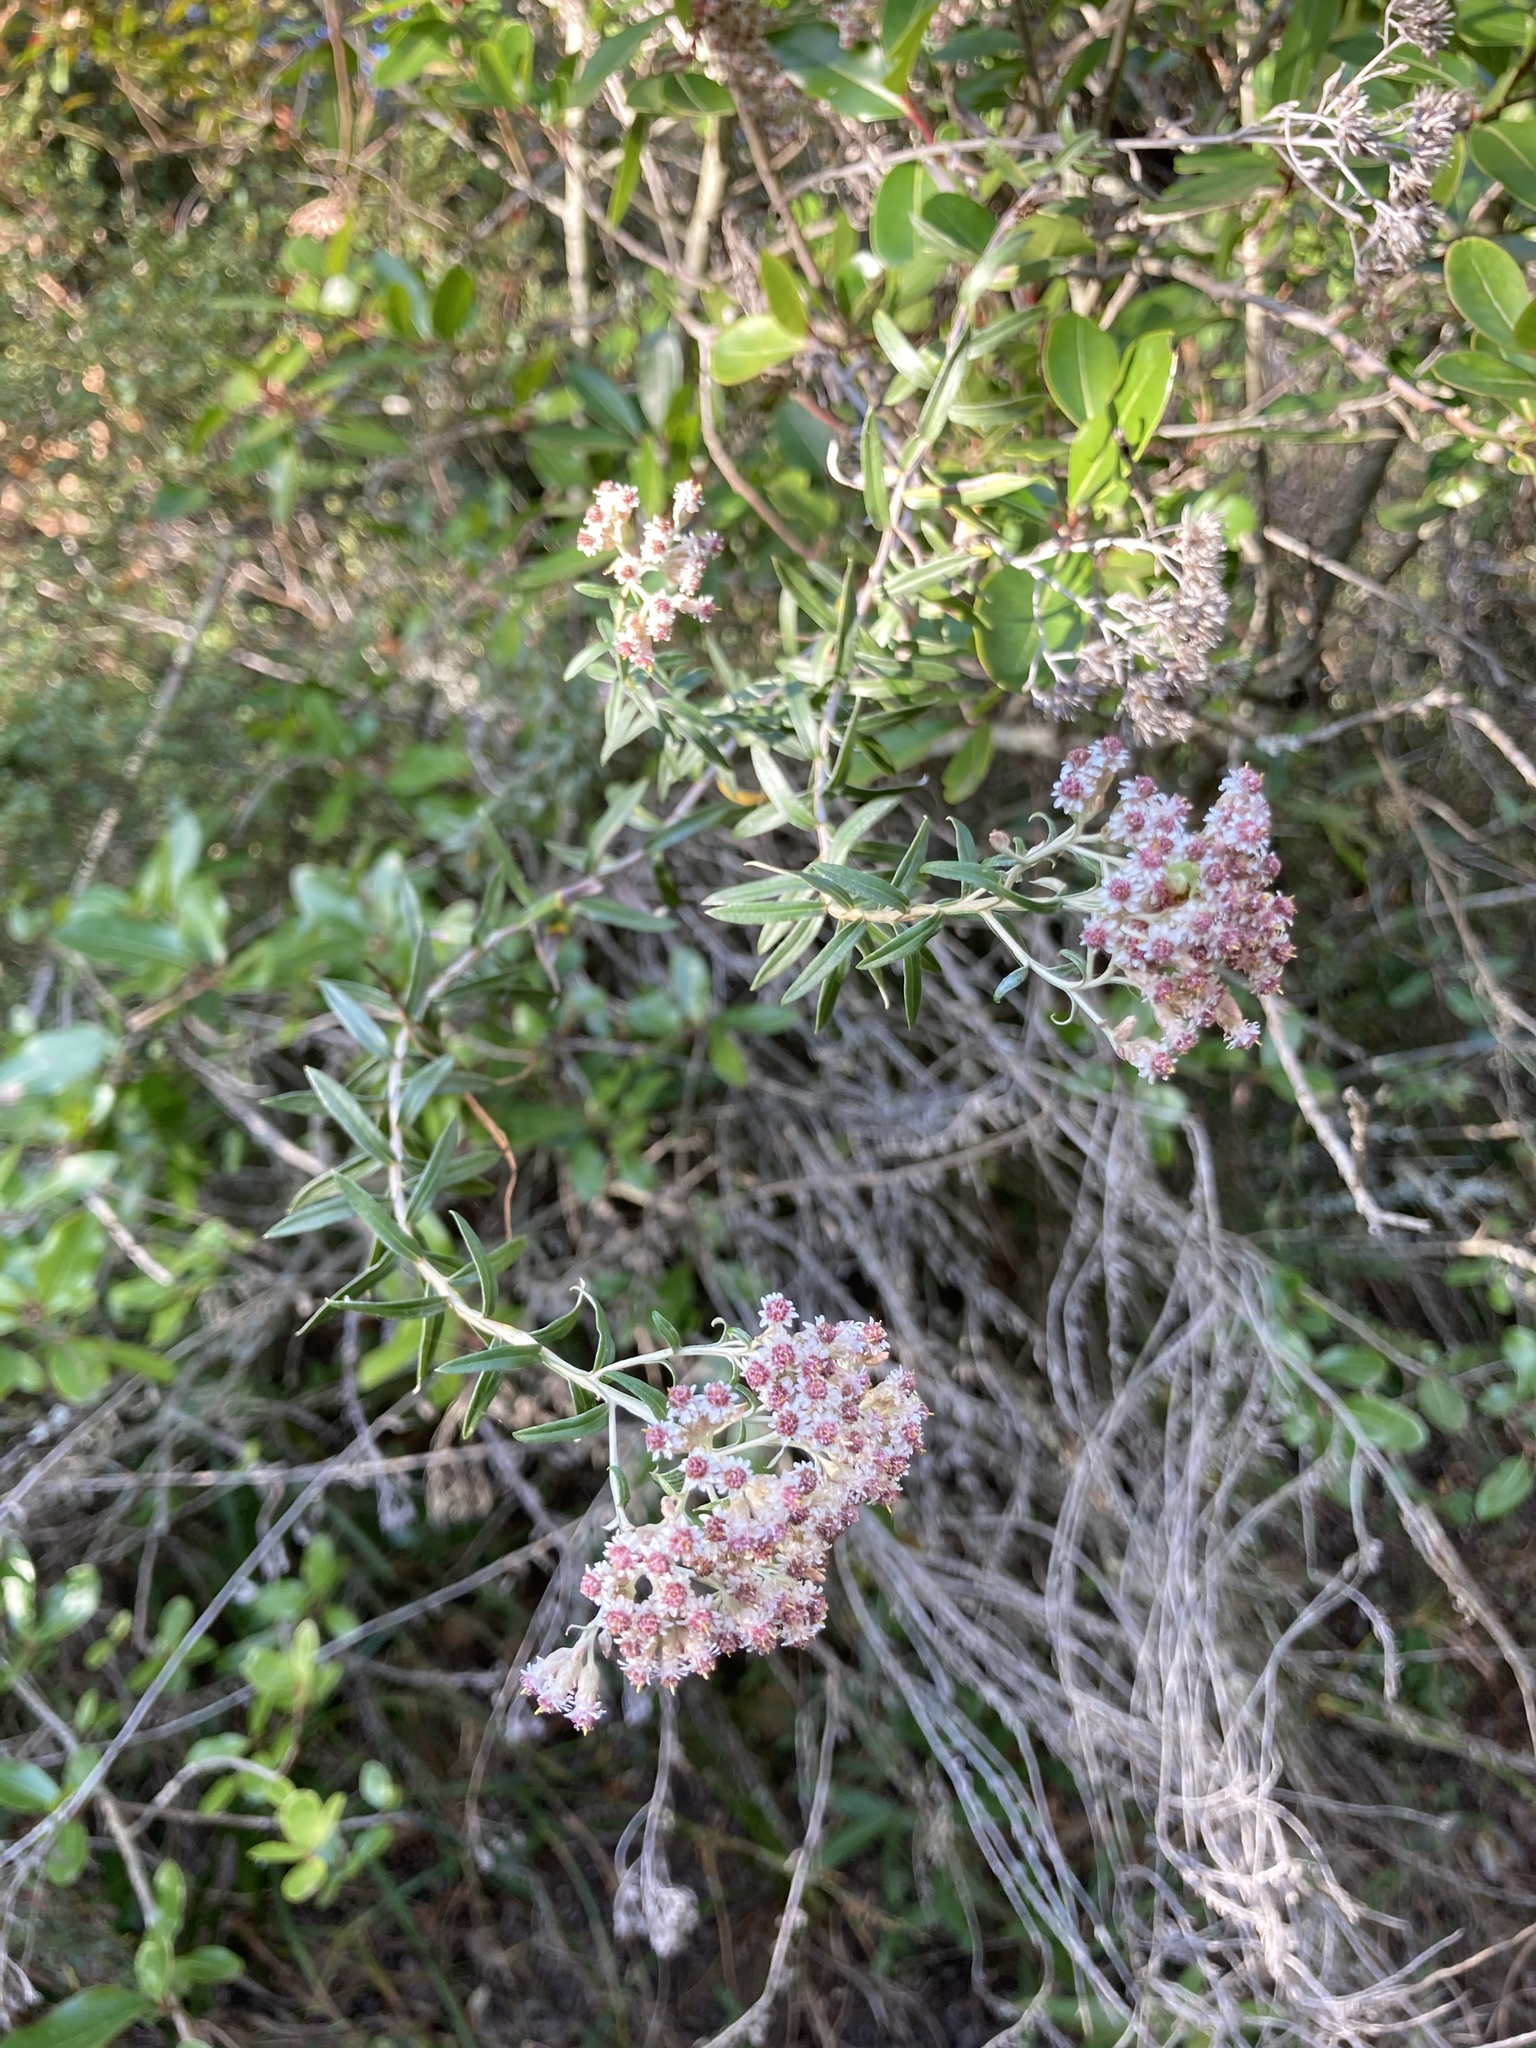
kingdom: Plantae
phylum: Tracheophyta
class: Magnoliopsida
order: Asterales
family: Asteraceae
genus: Tenrhynea
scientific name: Tenrhynea phylicifolia
